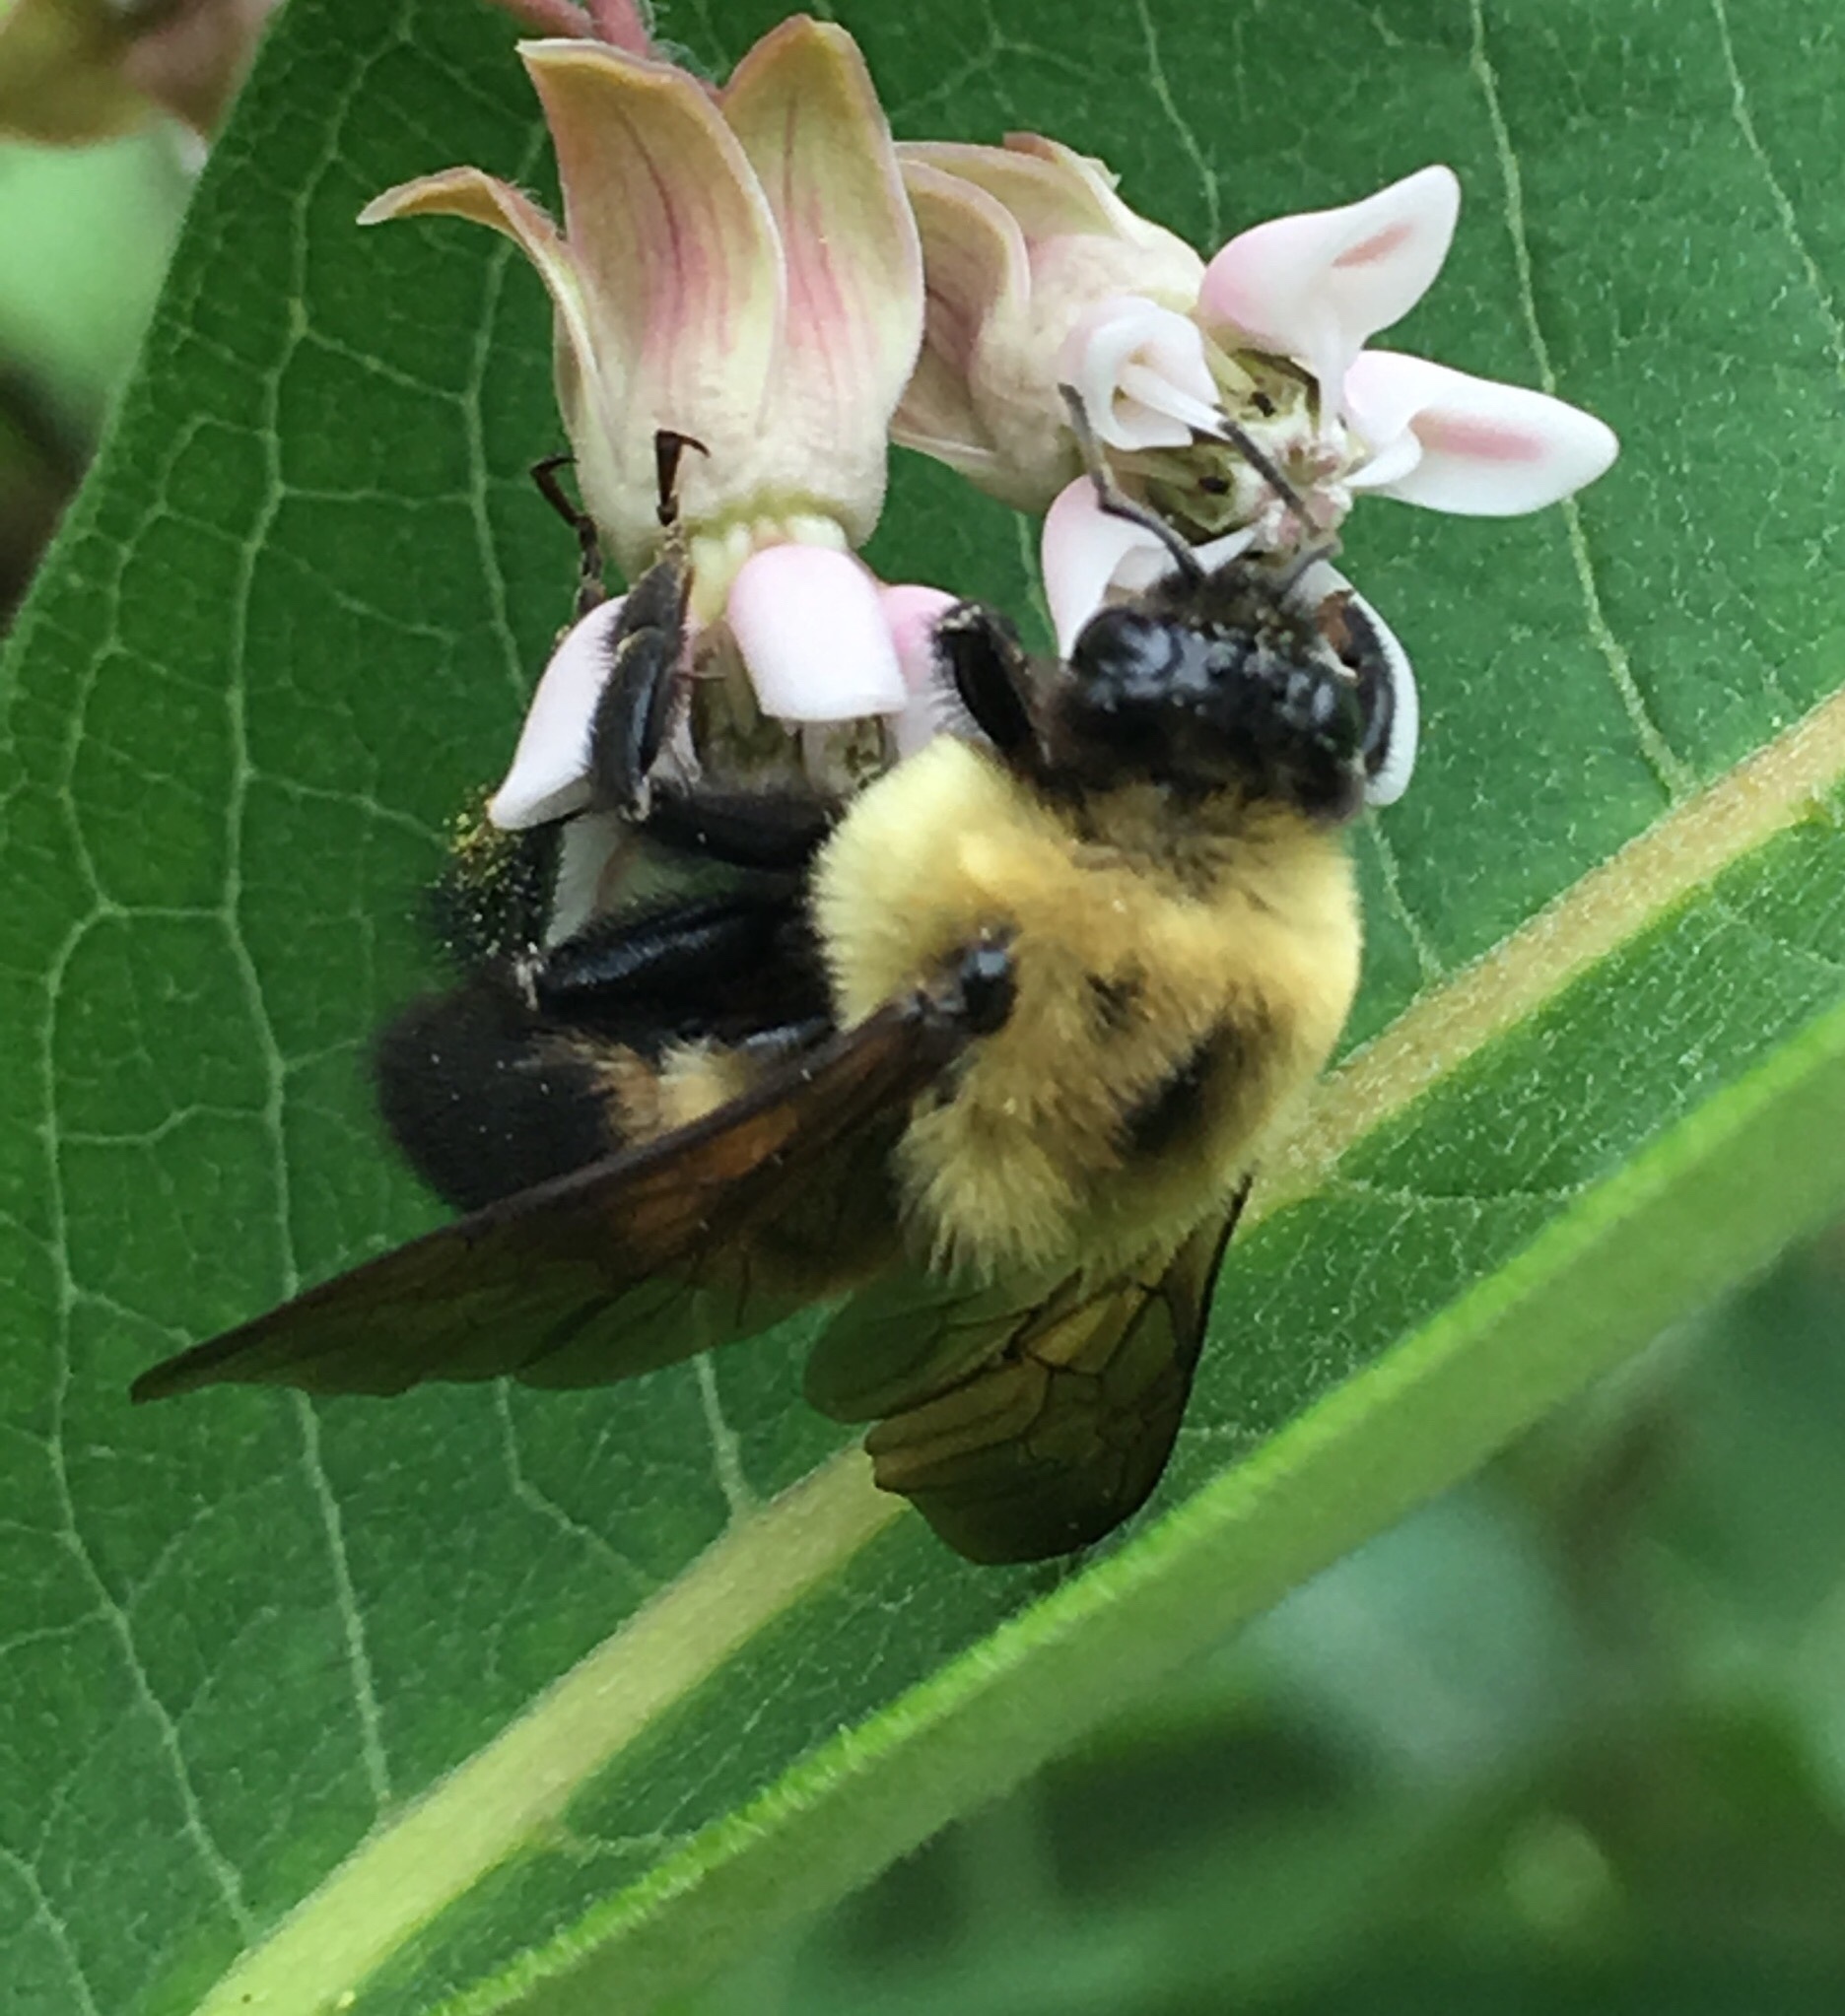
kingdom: Animalia
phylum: Arthropoda
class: Insecta
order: Hymenoptera
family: Apidae
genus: Bombus
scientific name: Bombus griseocollis
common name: Brown-belted bumble bee
